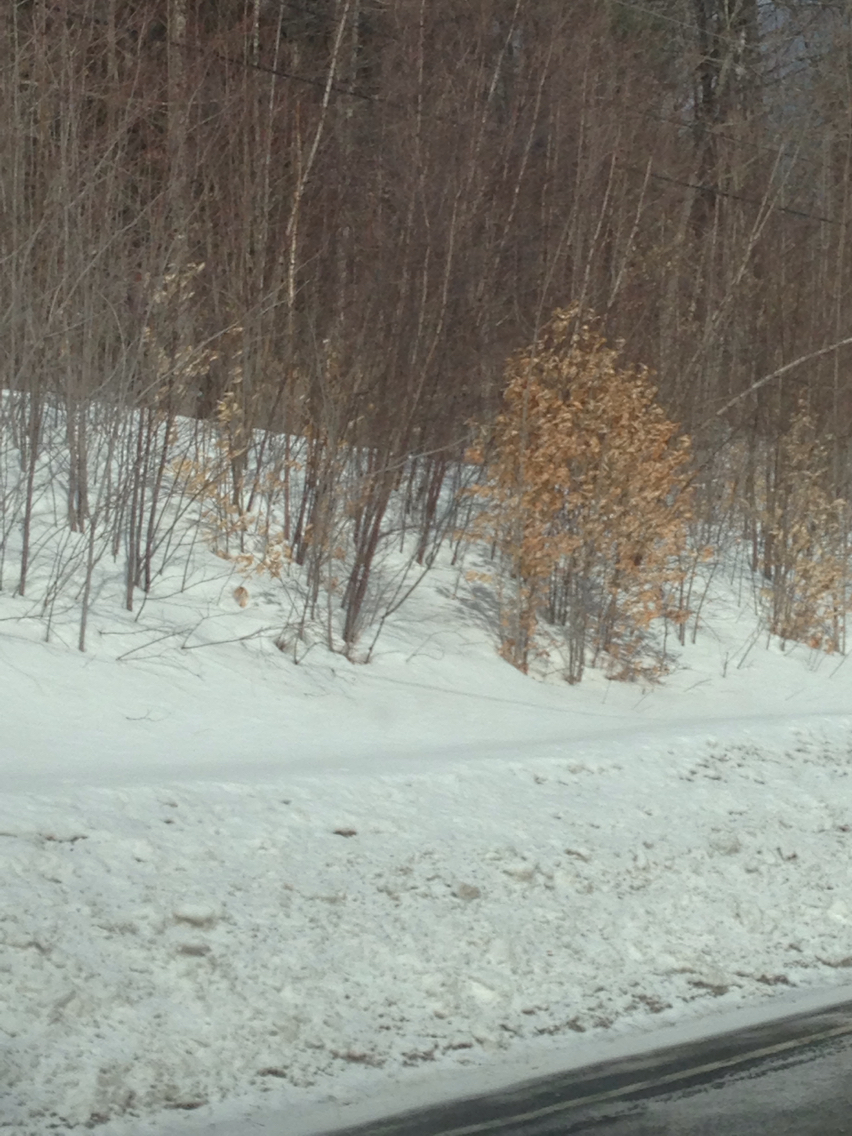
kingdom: Plantae
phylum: Tracheophyta
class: Magnoliopsida
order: Fagales
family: Fagaceae
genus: Fagus
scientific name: Fagus grandifolia
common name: American beech
